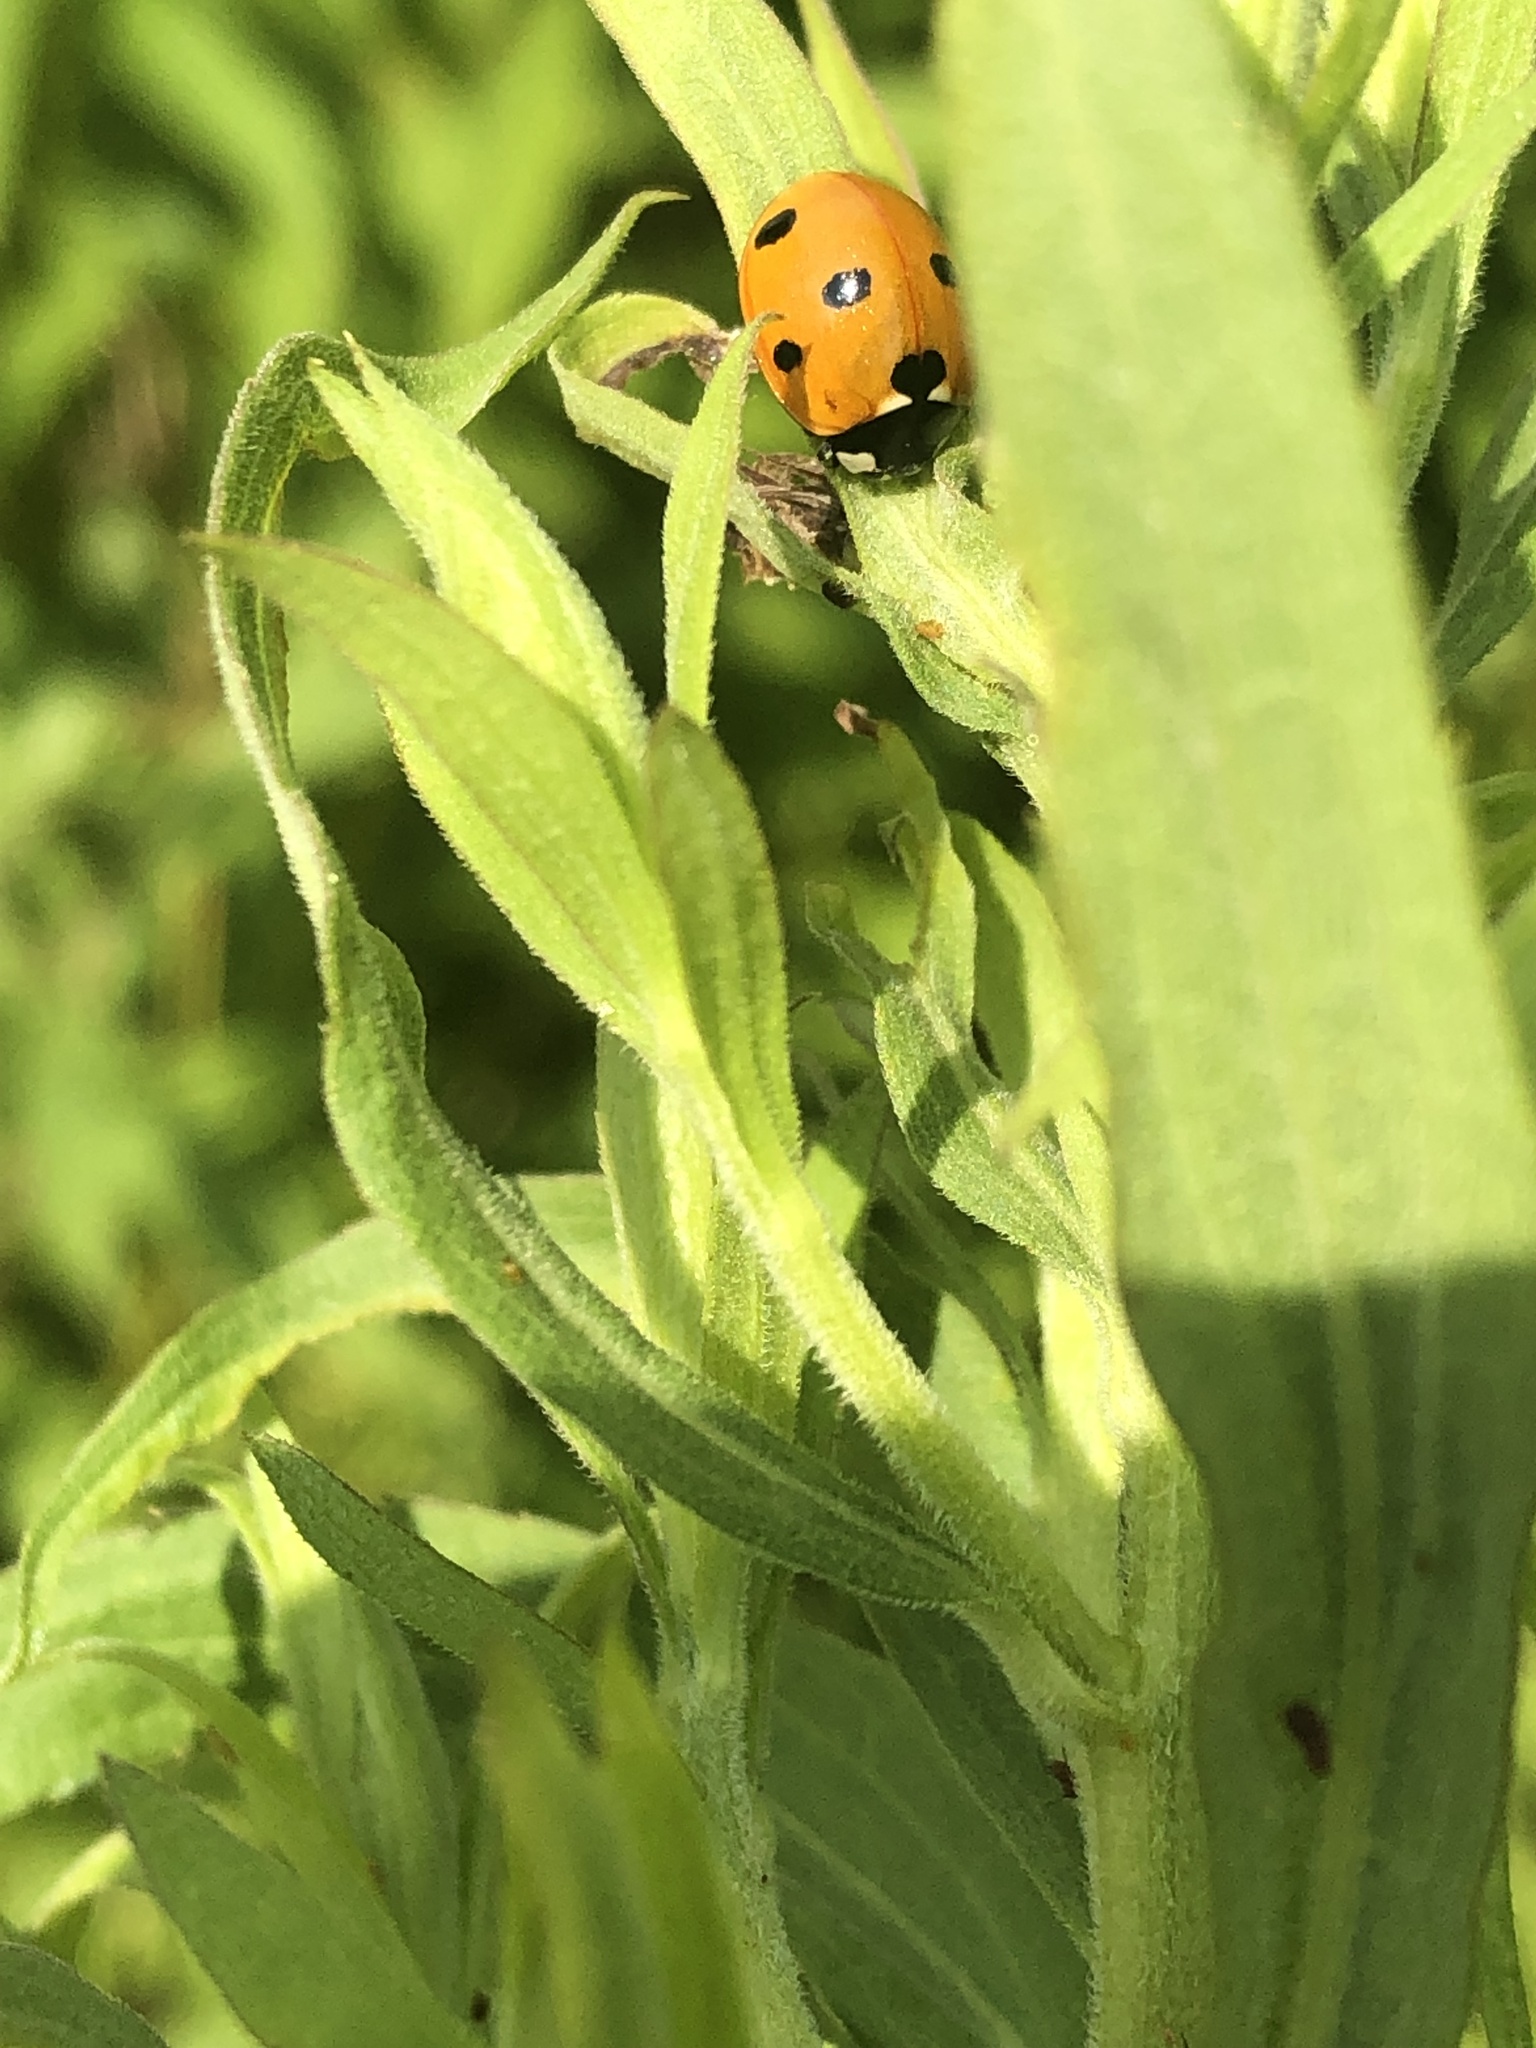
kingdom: Animalia
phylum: Arthropoda
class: Insecta
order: Coleoptera
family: Coccinellidae
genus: Coccinella
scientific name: Coccinella septempunctata
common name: Sevenspotted lady beetle
